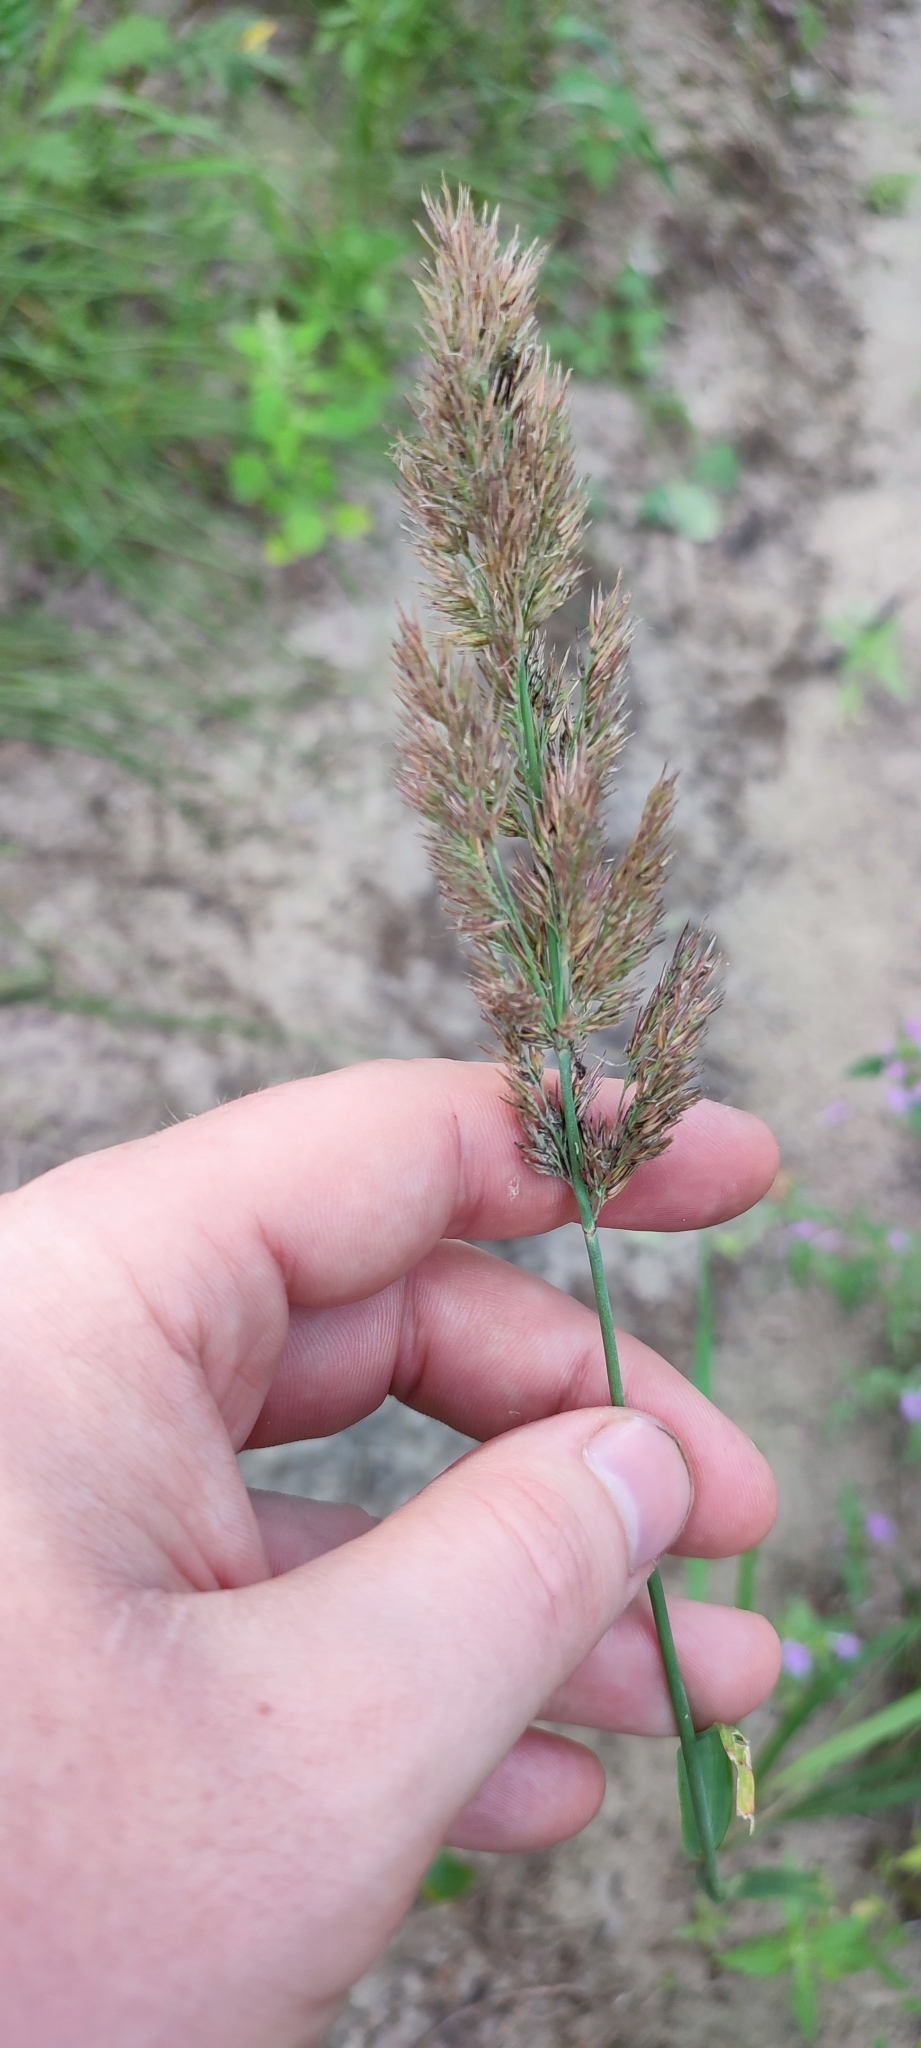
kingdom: Plantae
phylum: Tracheophyta
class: Liliopsida
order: Poales
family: Poaceae
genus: Calamagrostis
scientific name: Calamagrostis epigejos
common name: Wood small-reed
